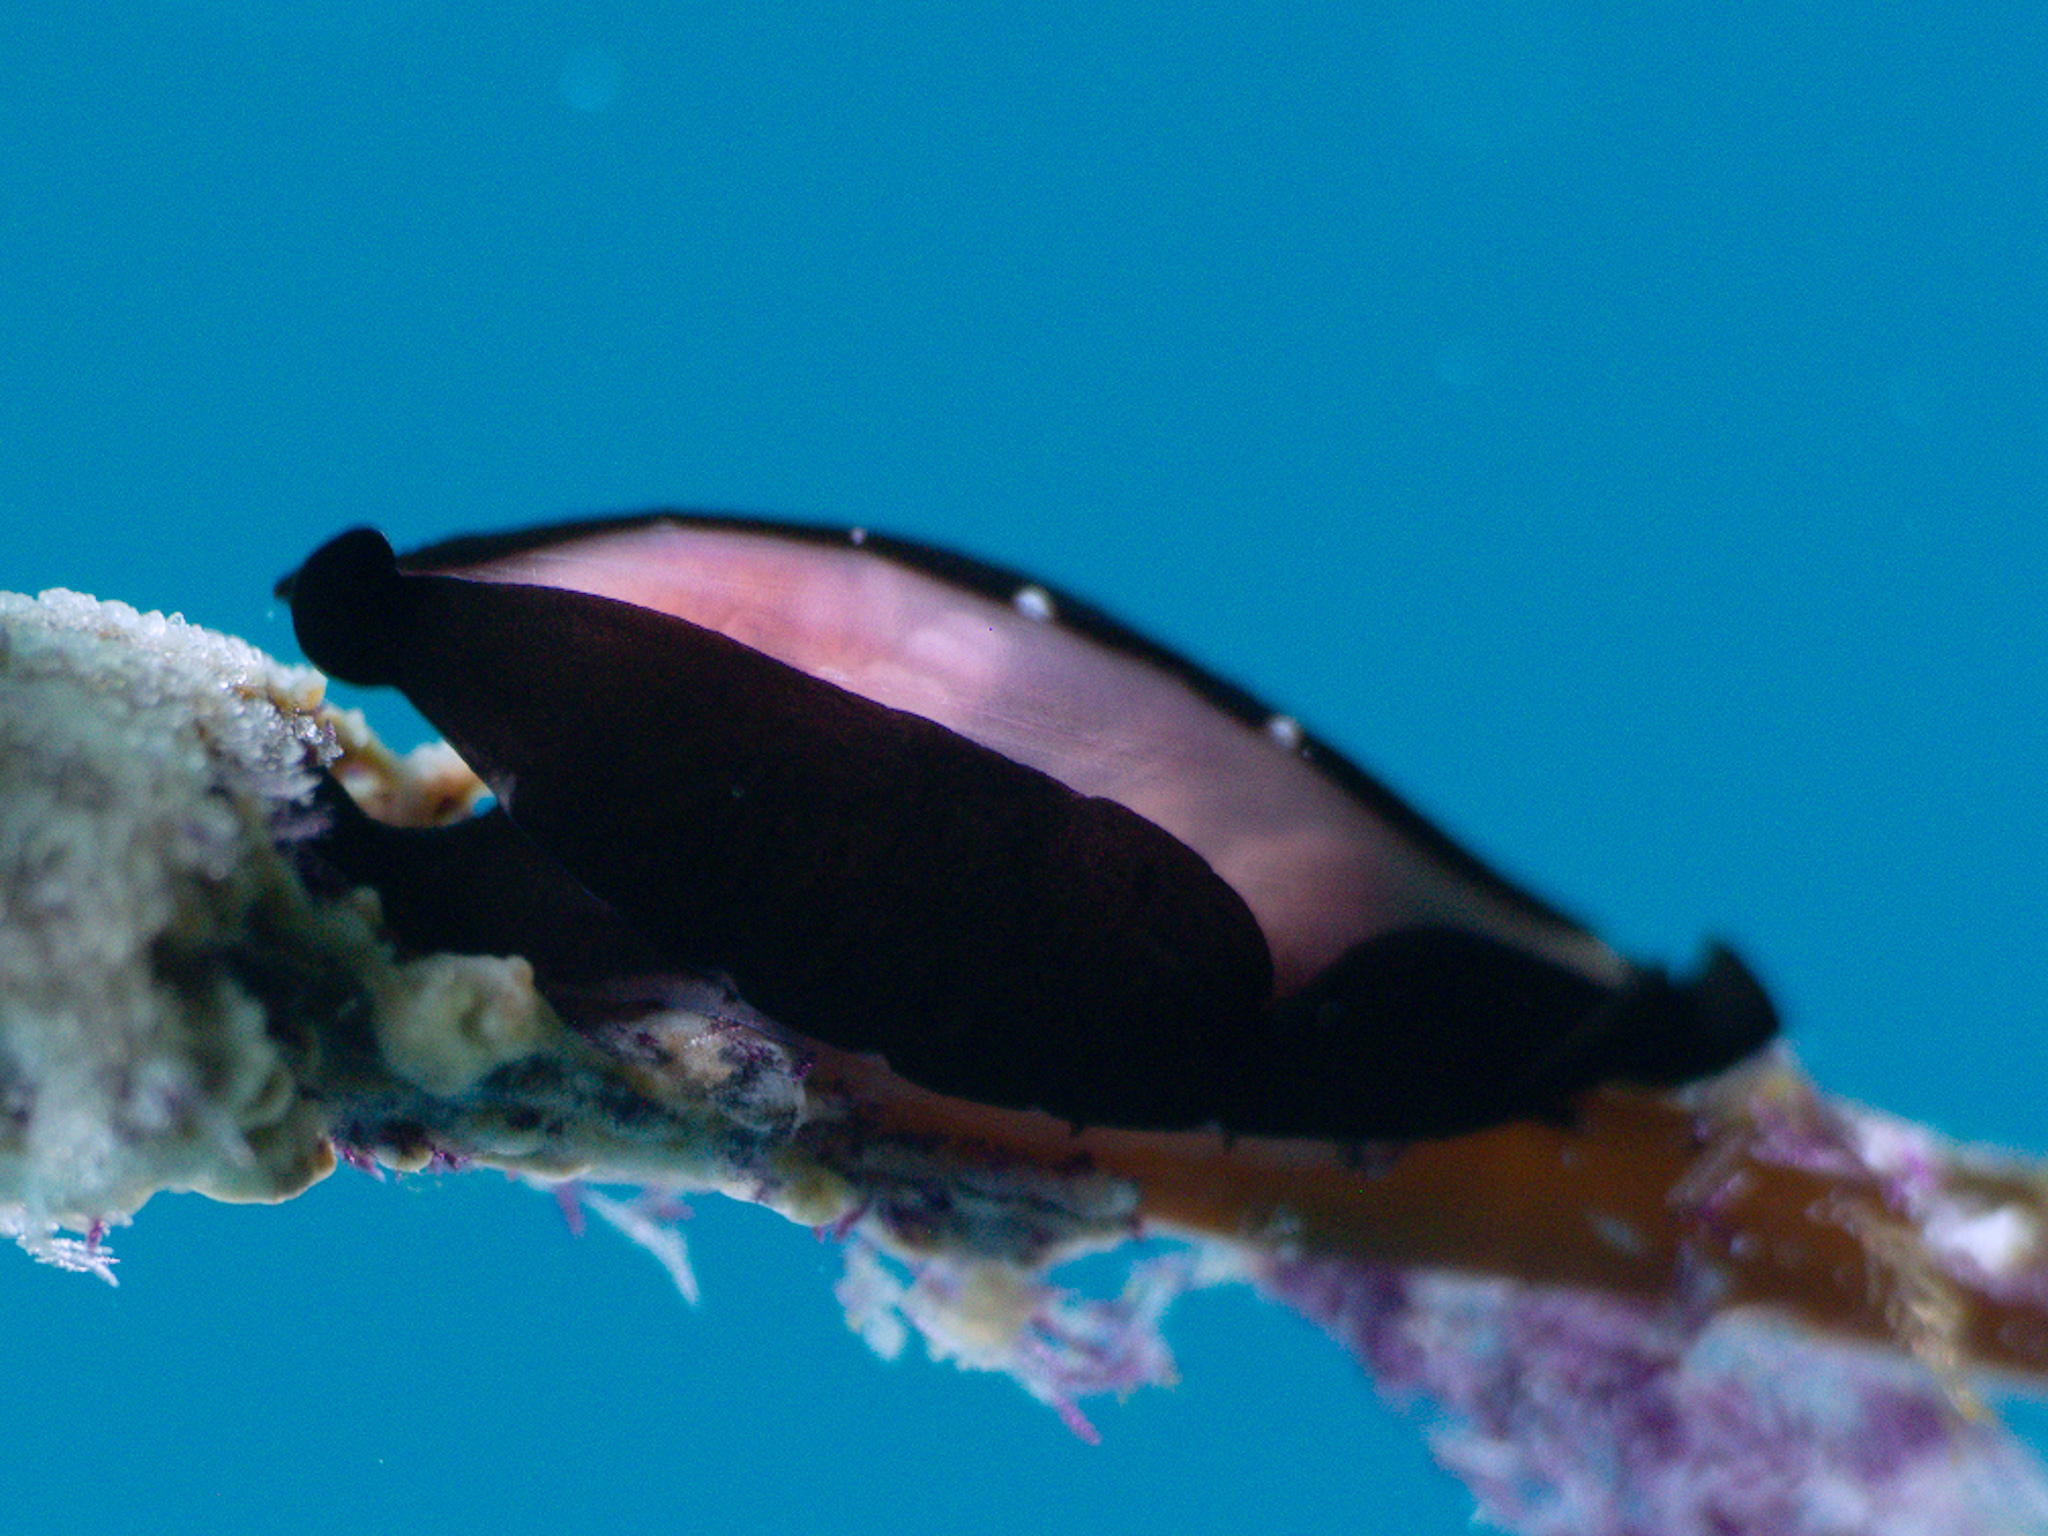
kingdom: Animalia
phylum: Mollusca
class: Gastropoda
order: Littorinimorpha
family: Ovulidae
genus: Cyphoma
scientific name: Cyphoma cassidyae
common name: Black morph cyphoma
